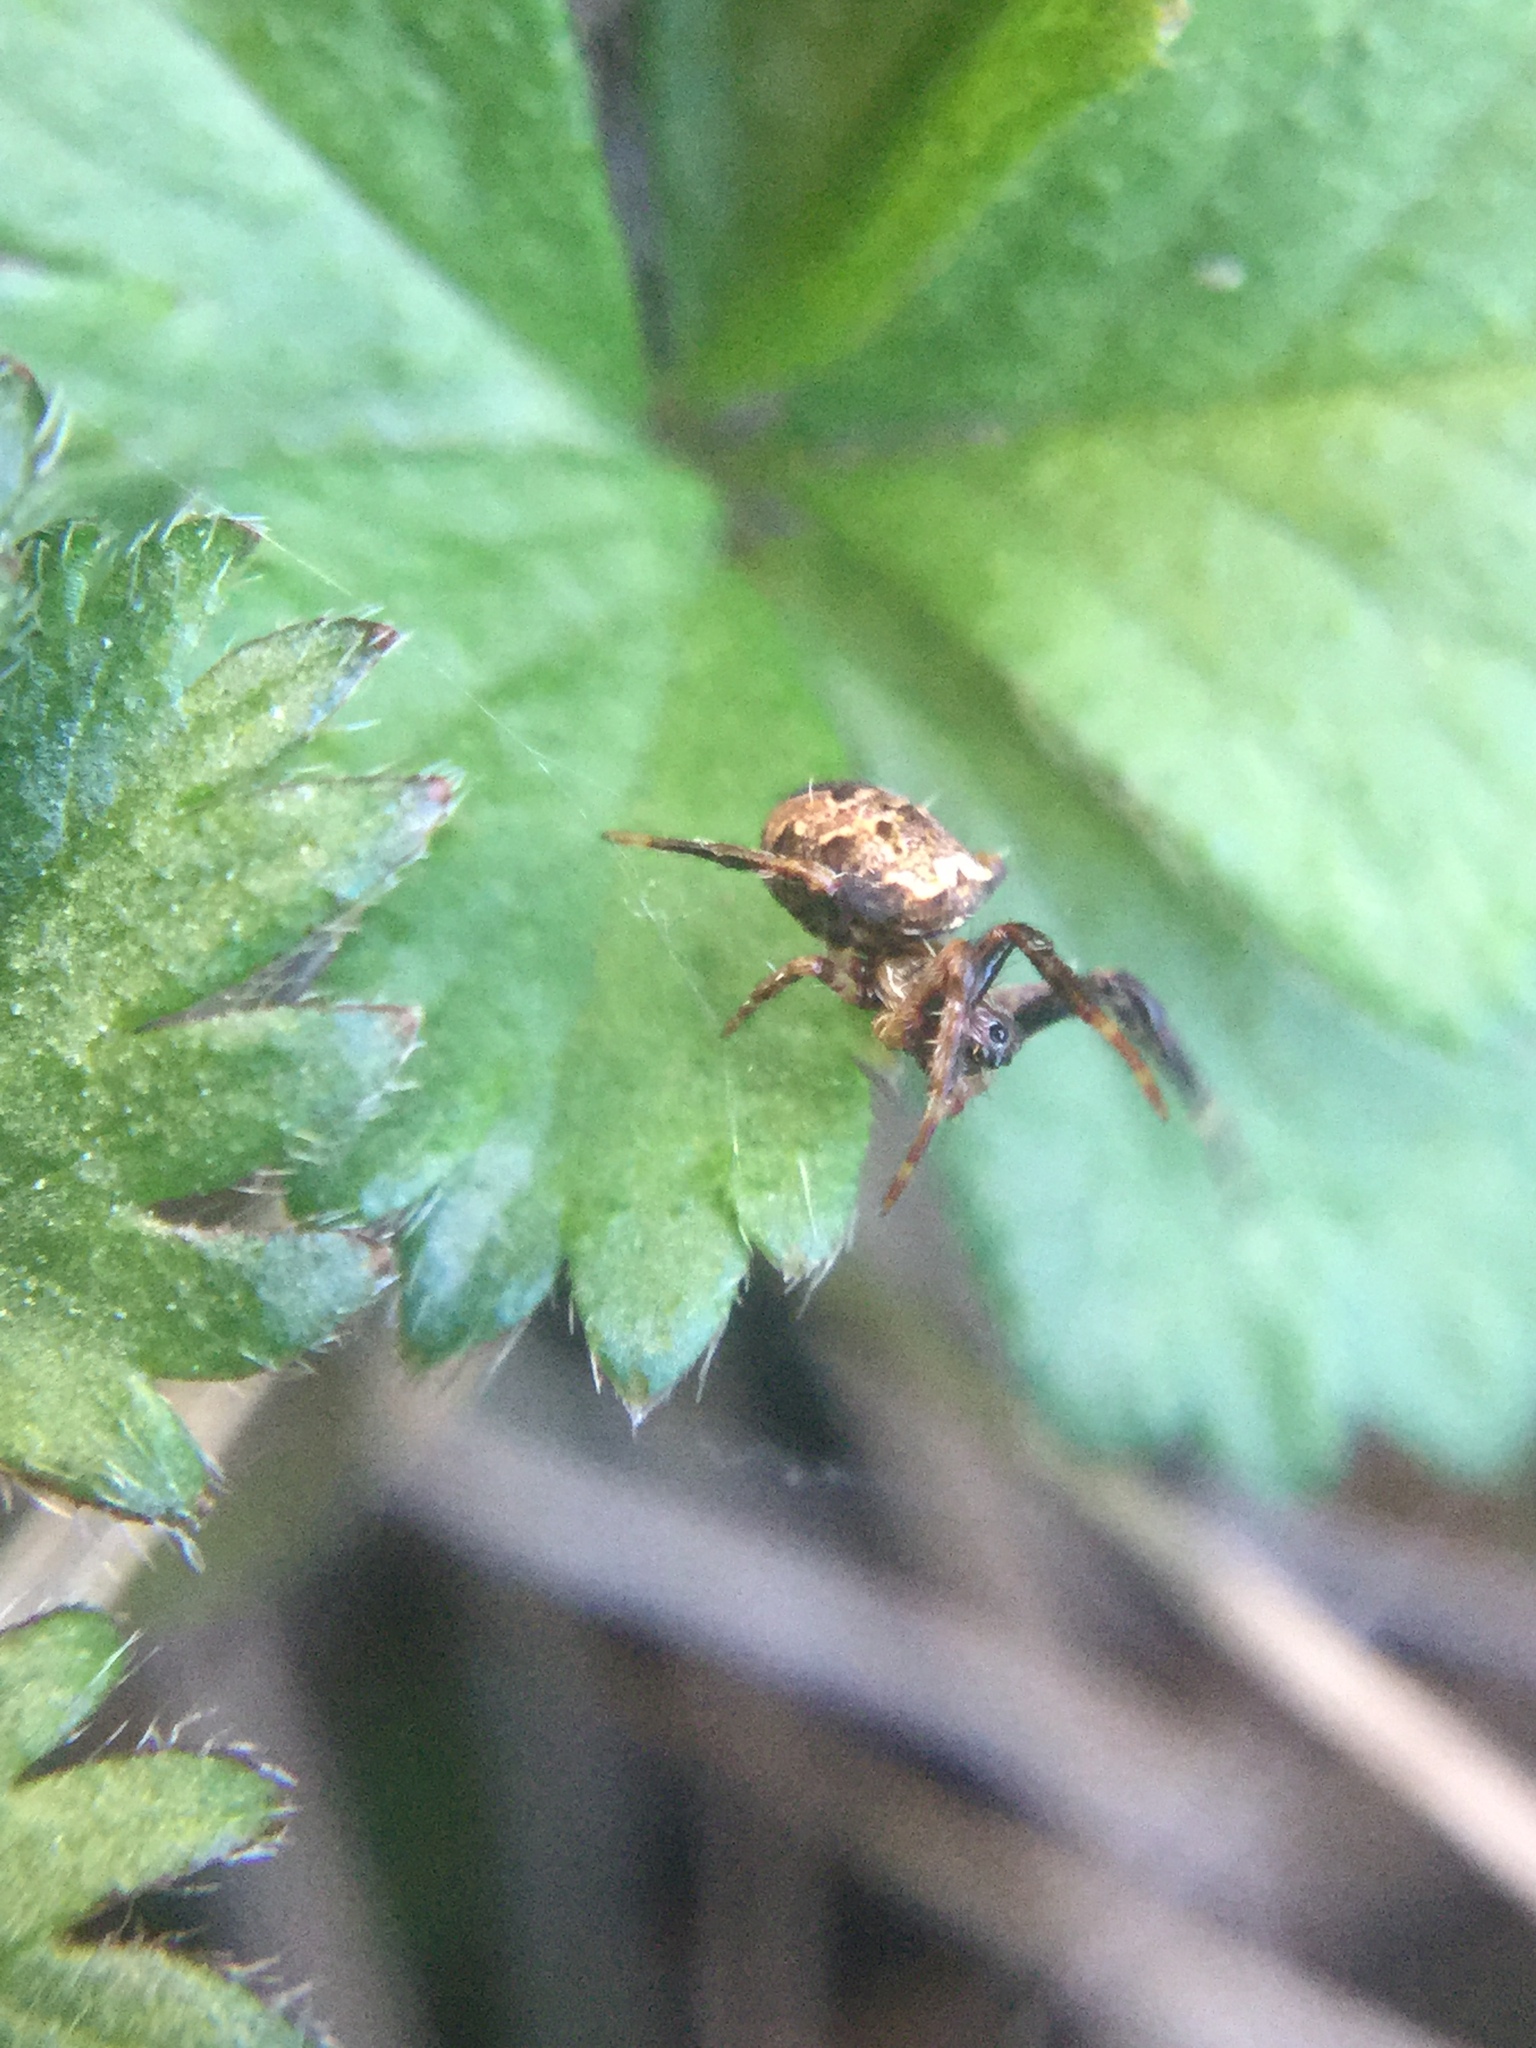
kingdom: Animalia
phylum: Arthropoda
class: Arachnida
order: Araneae
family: Araneidae
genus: Gea
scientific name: Gea heptagon
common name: Orb weavers
